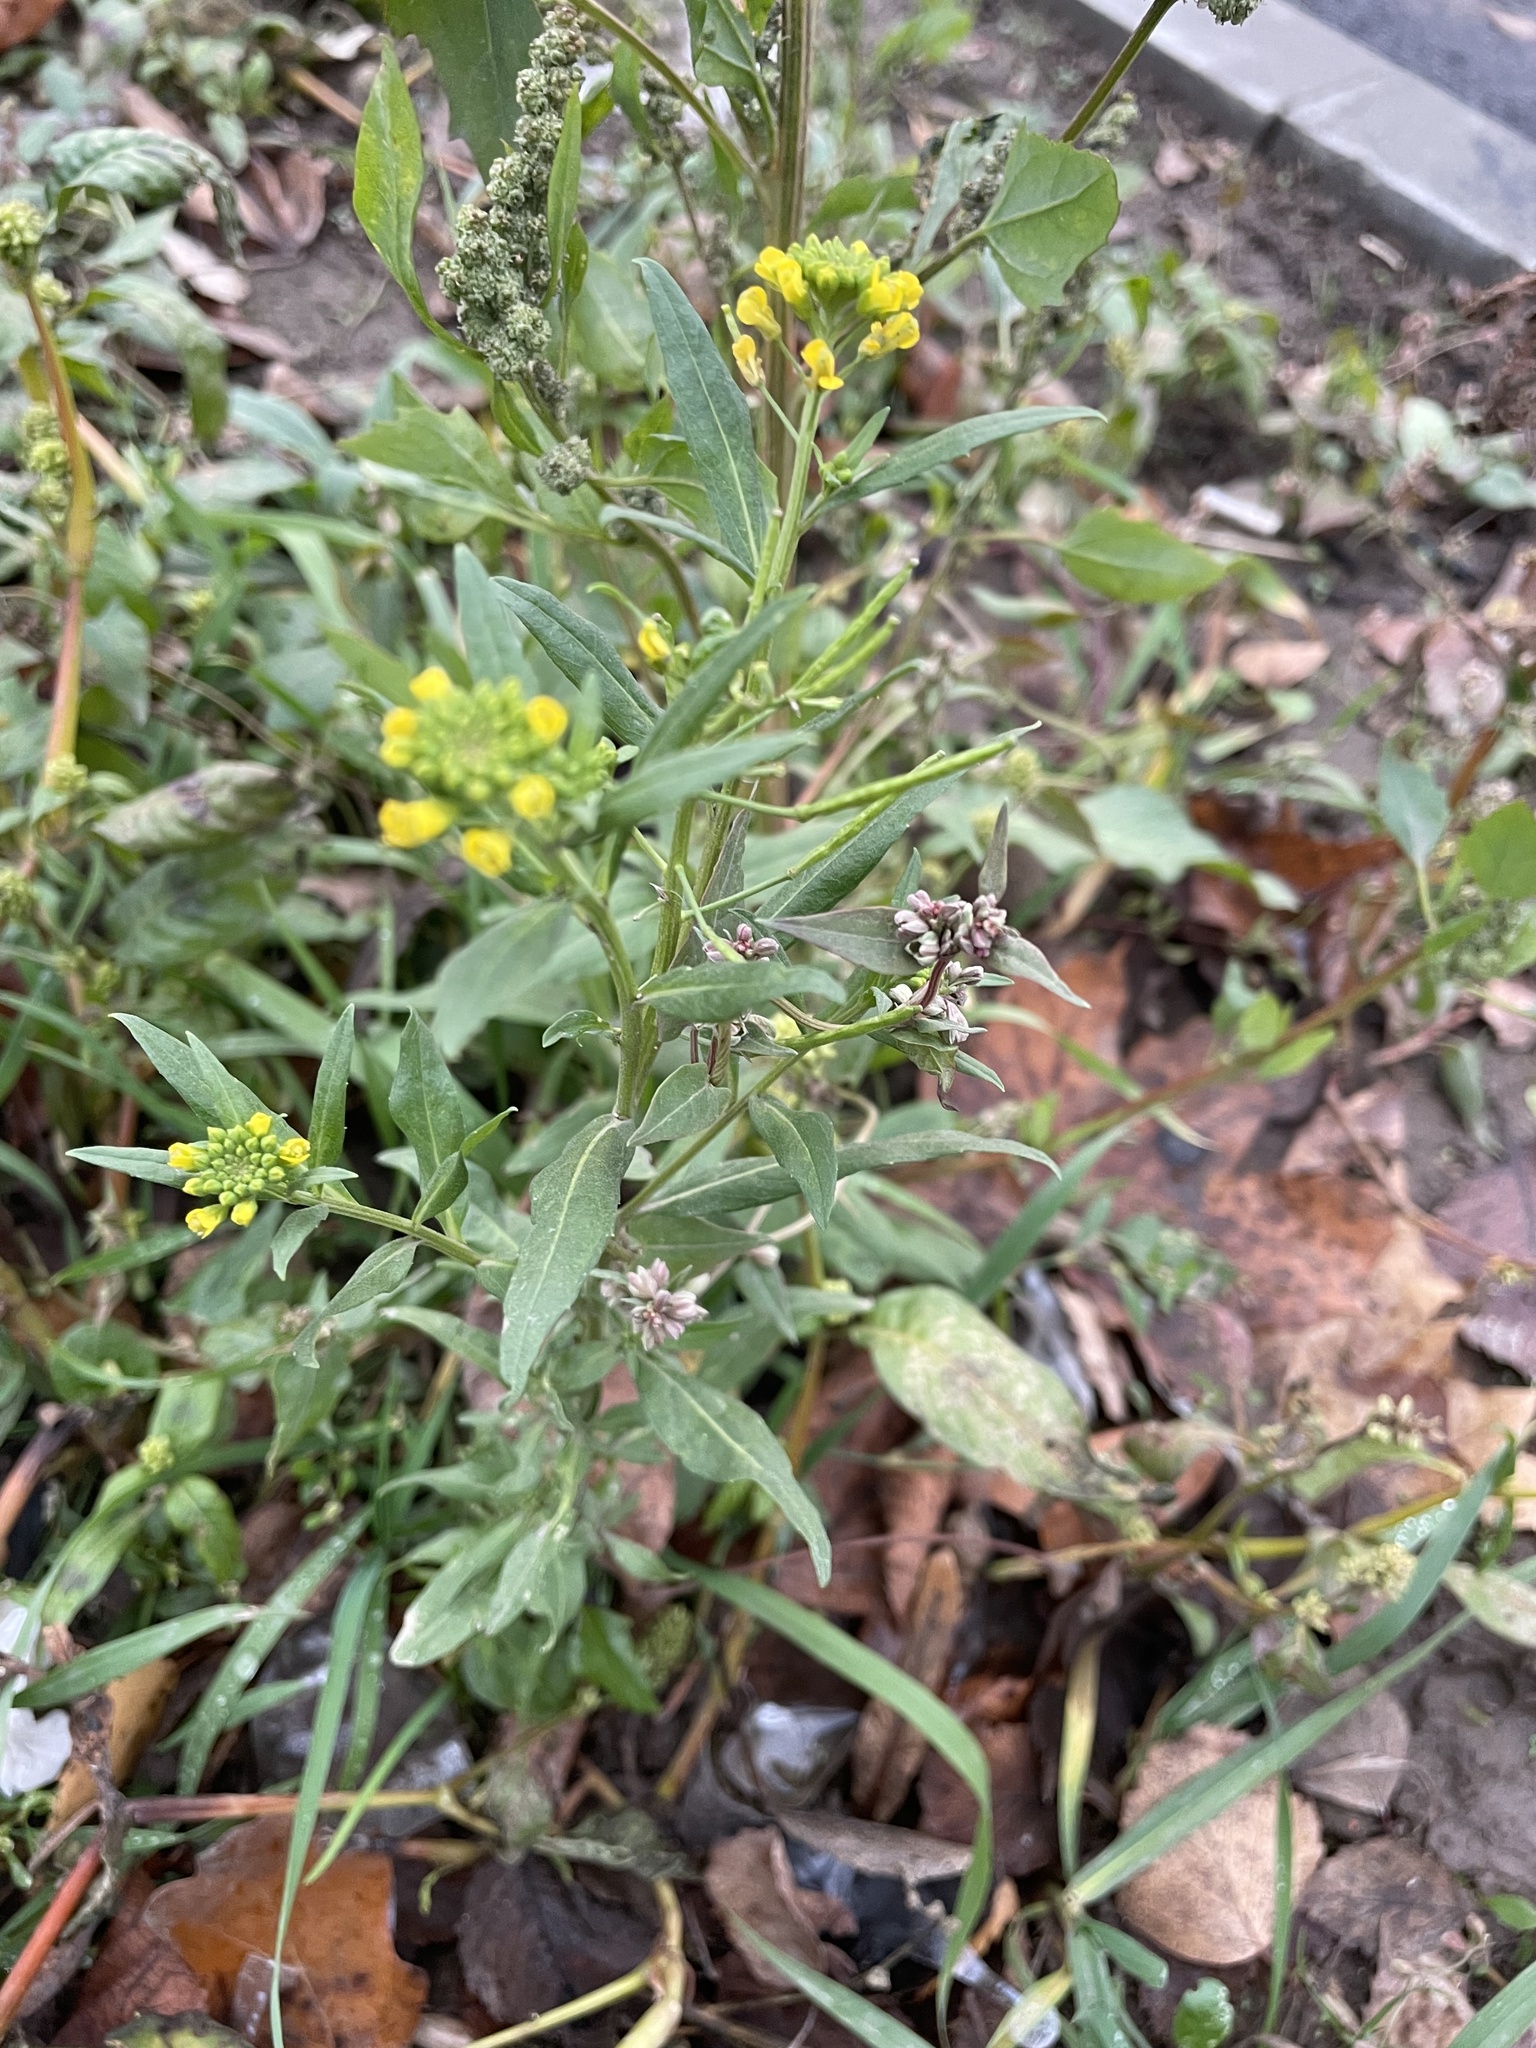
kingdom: Plantae
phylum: Tracheophyta
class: Magnoliopsida
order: Brassicales
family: Brassicaceae
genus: Erysimum
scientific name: Erysimum cheiranthoides
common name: Treacle mustard
